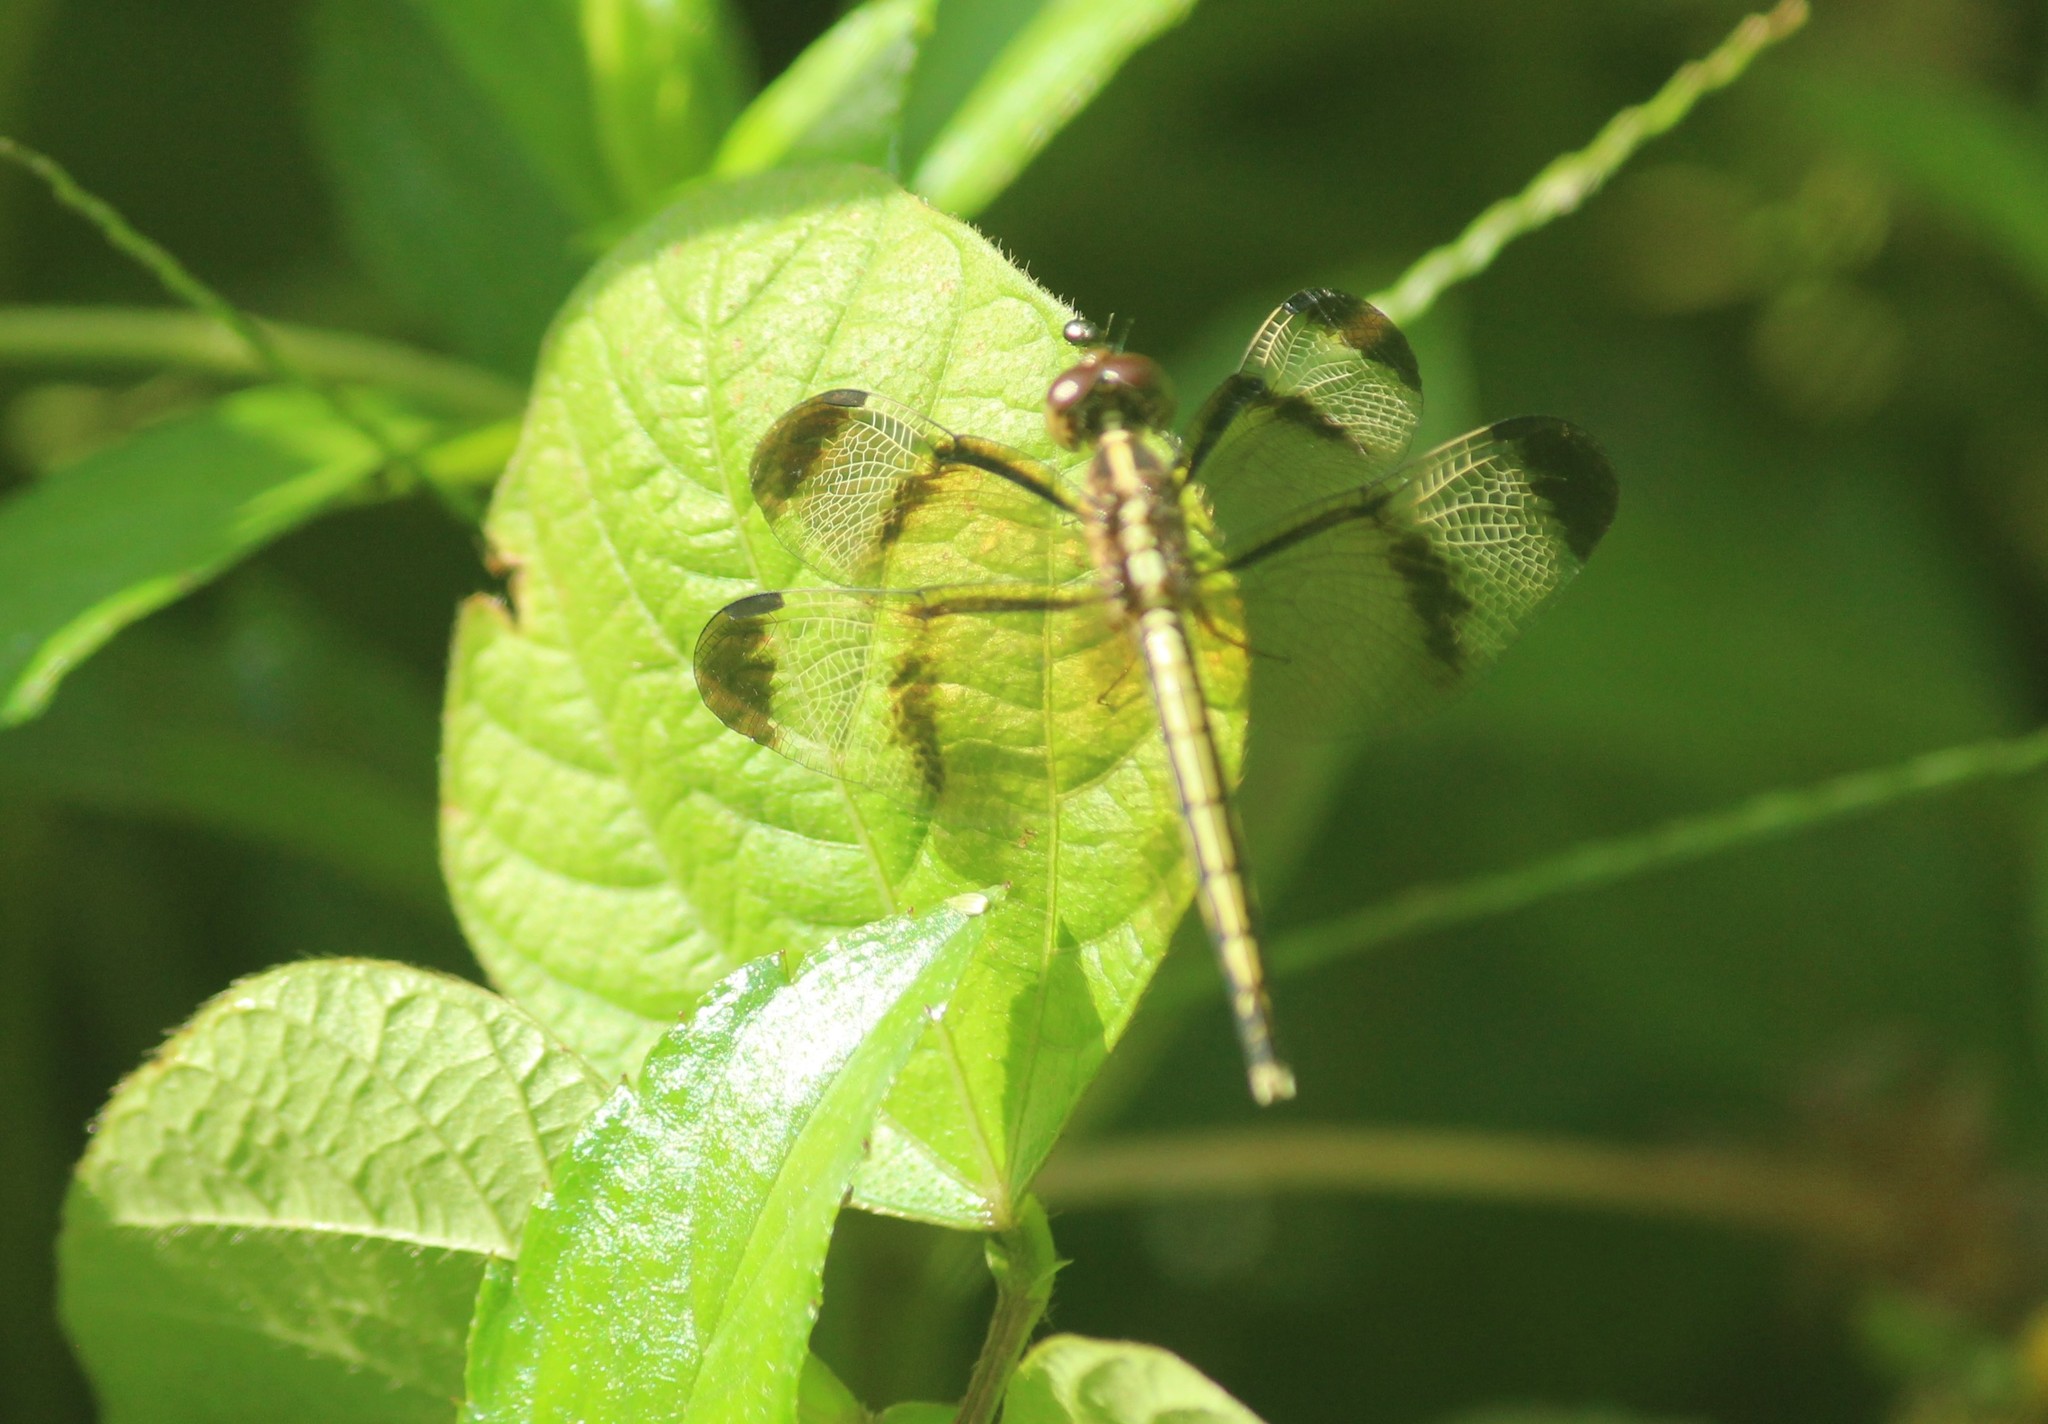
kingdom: Animalia
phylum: Arthropoda
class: Insecta
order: Odonata
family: Libellulidae
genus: Neurothemis
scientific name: Neurothemis tullia
